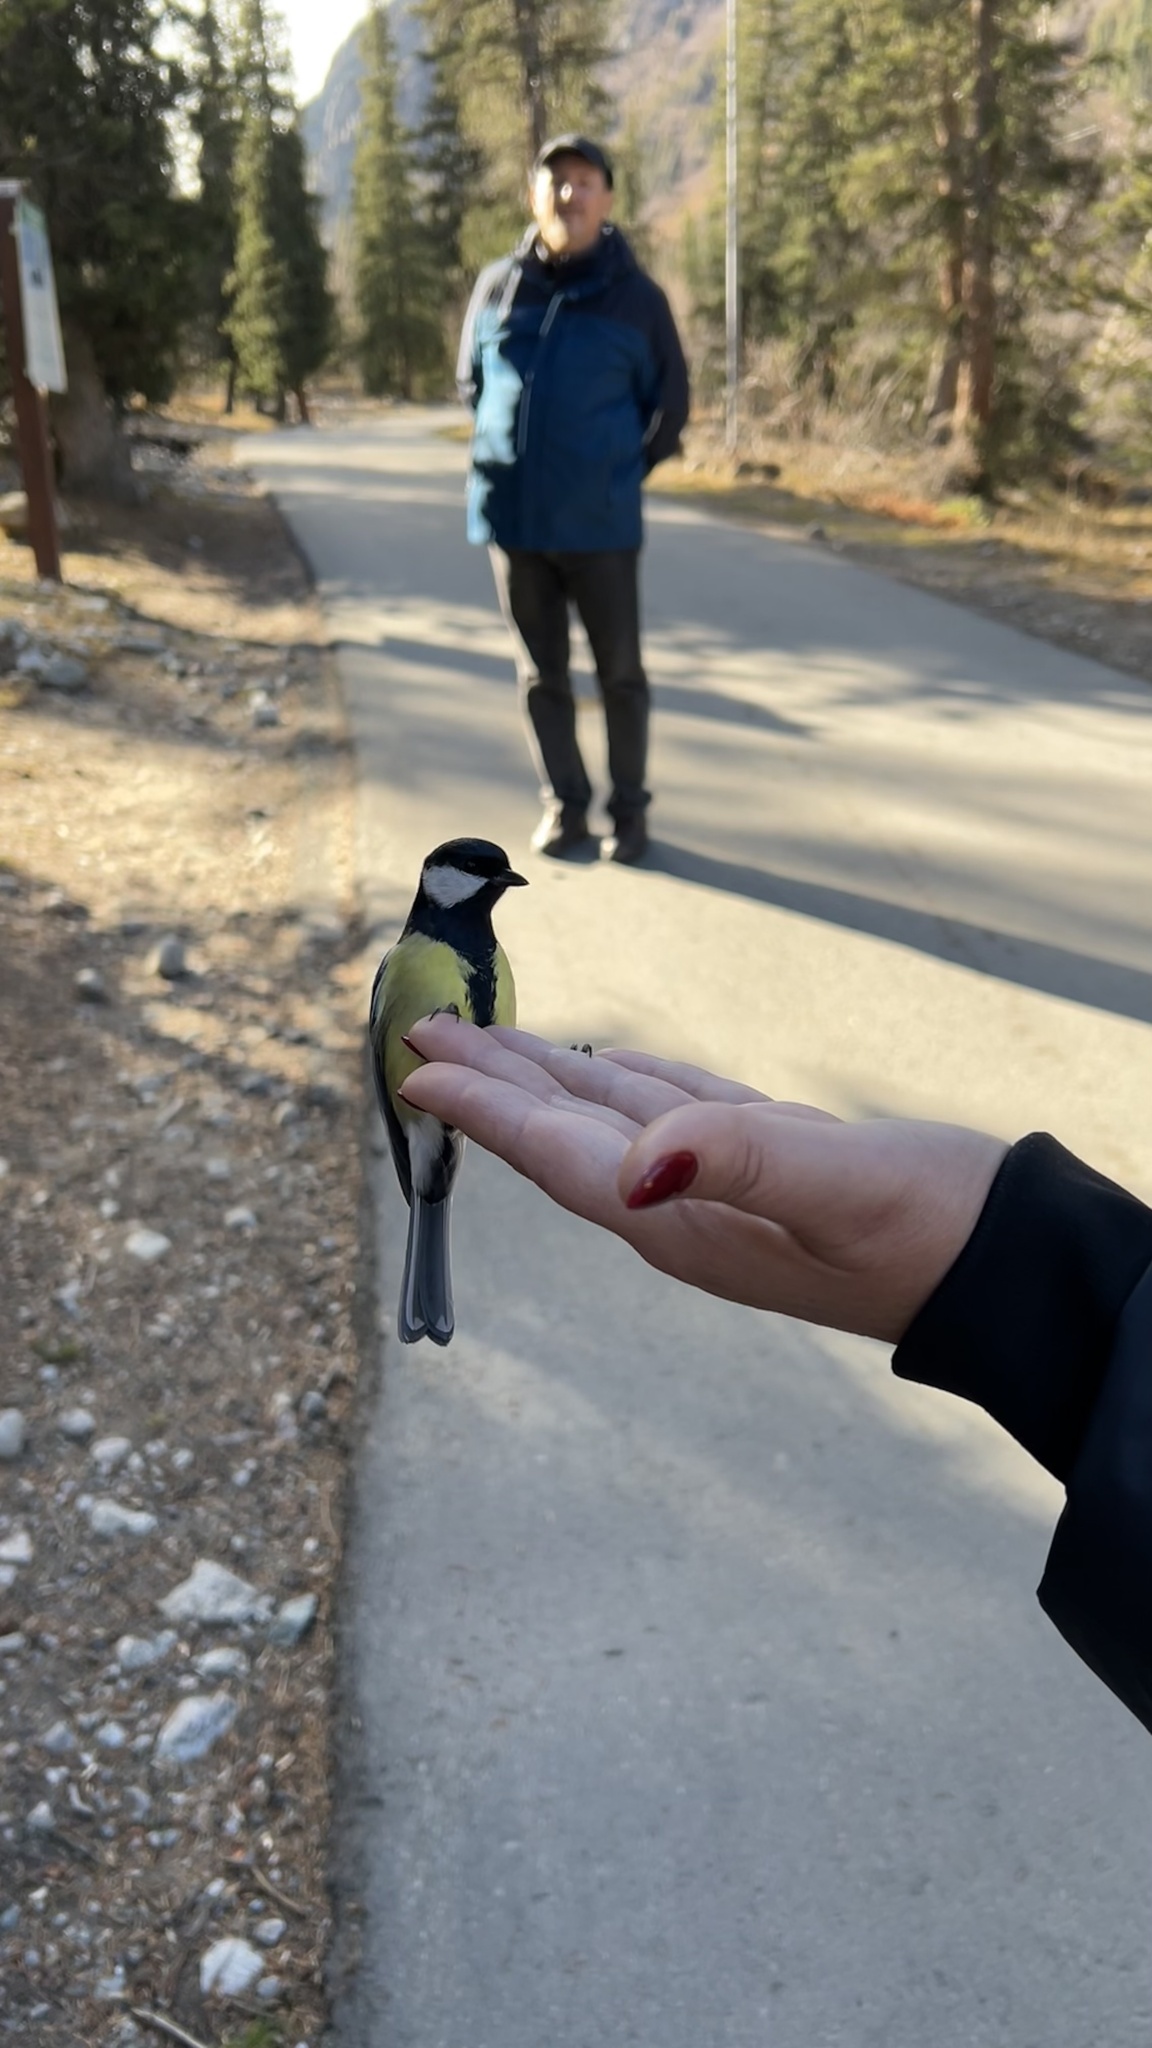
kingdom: Animalia
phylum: Chordata
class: Aves
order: Passeriformes
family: Paridae
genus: Parus
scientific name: Parus major
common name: Great tit
